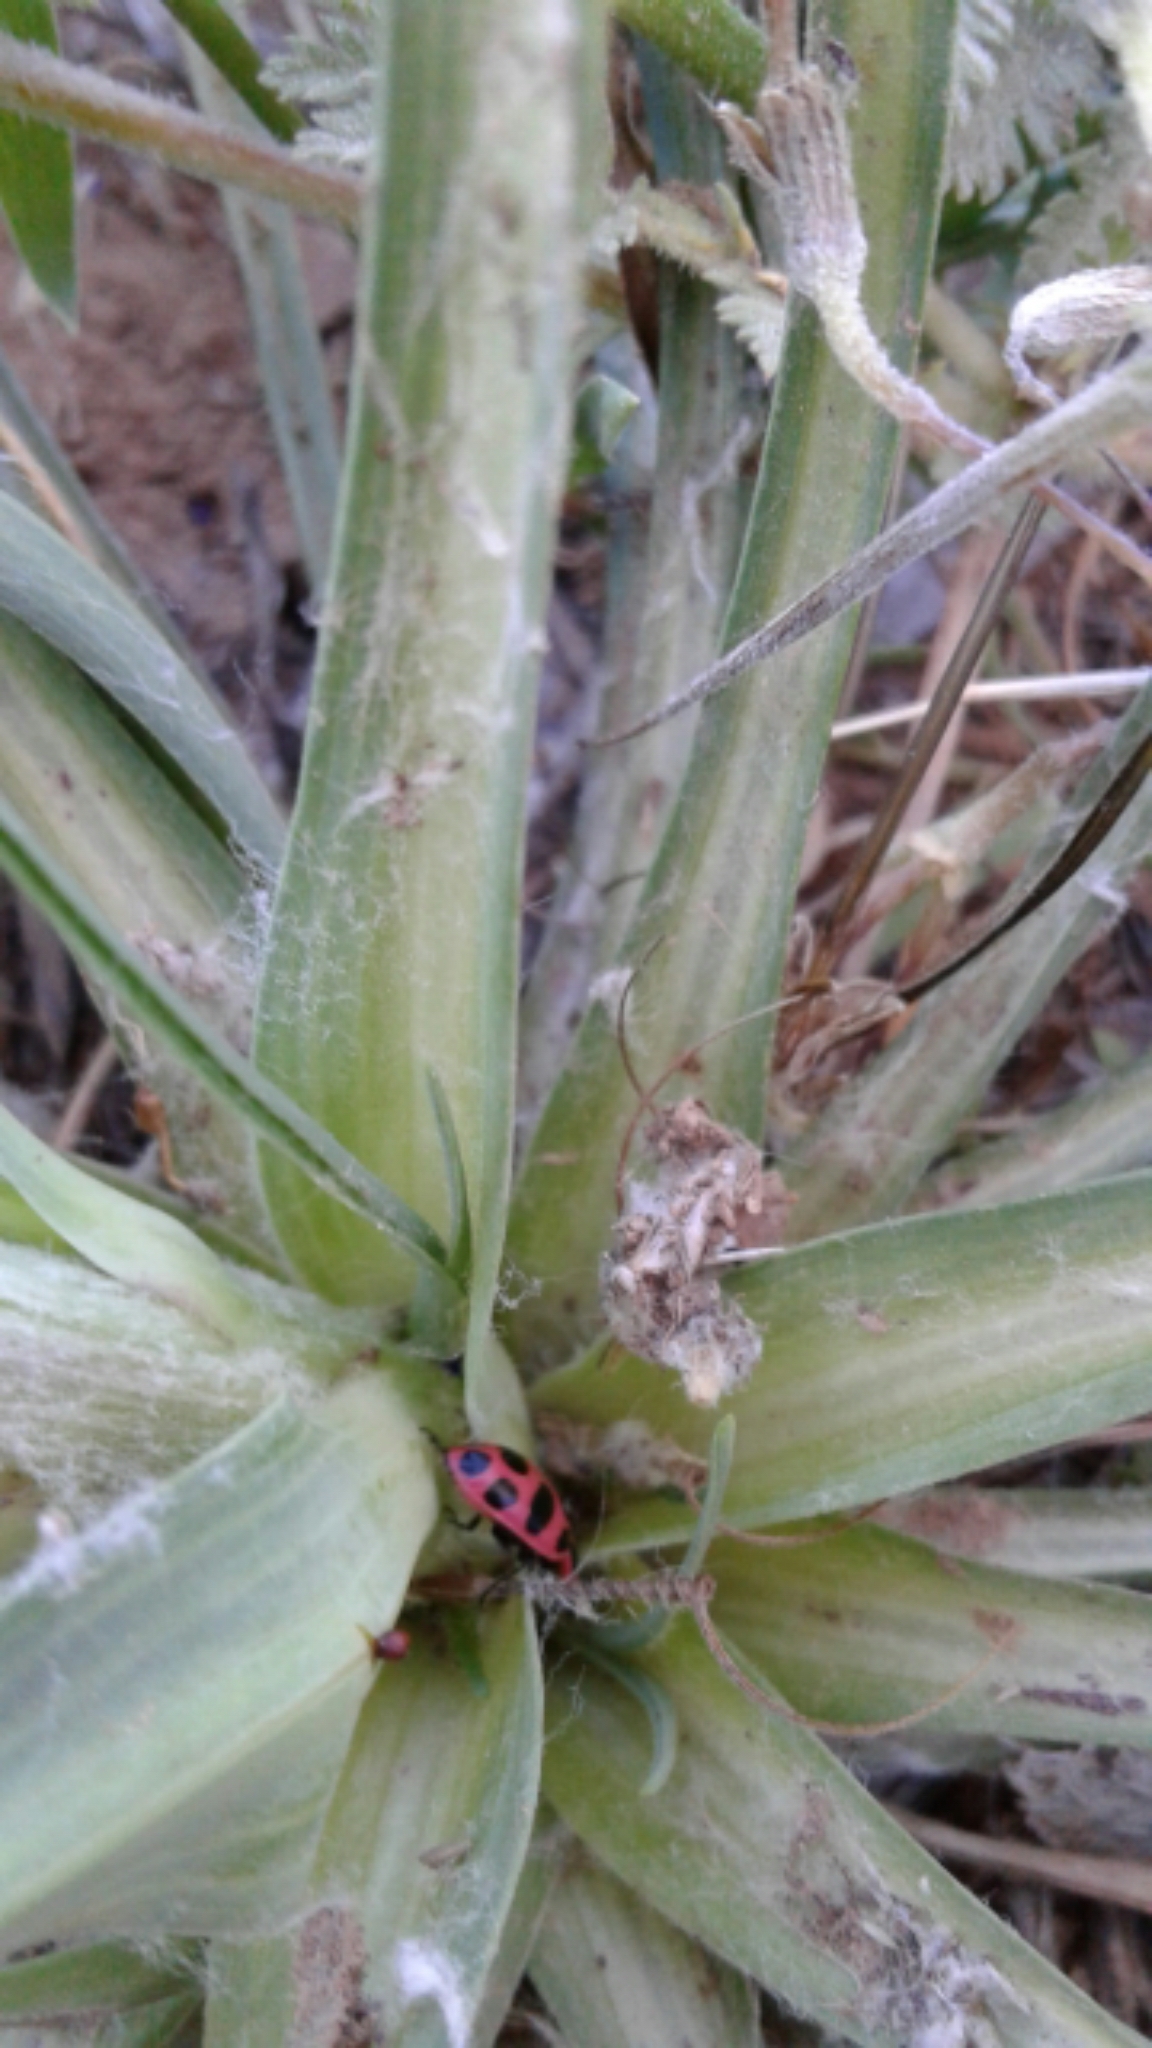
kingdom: Animalia
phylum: Arthropoda
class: Insecta
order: Coleoptera
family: Coccinellidae
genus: Coleomegilla
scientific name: Coleomegilla maculata
